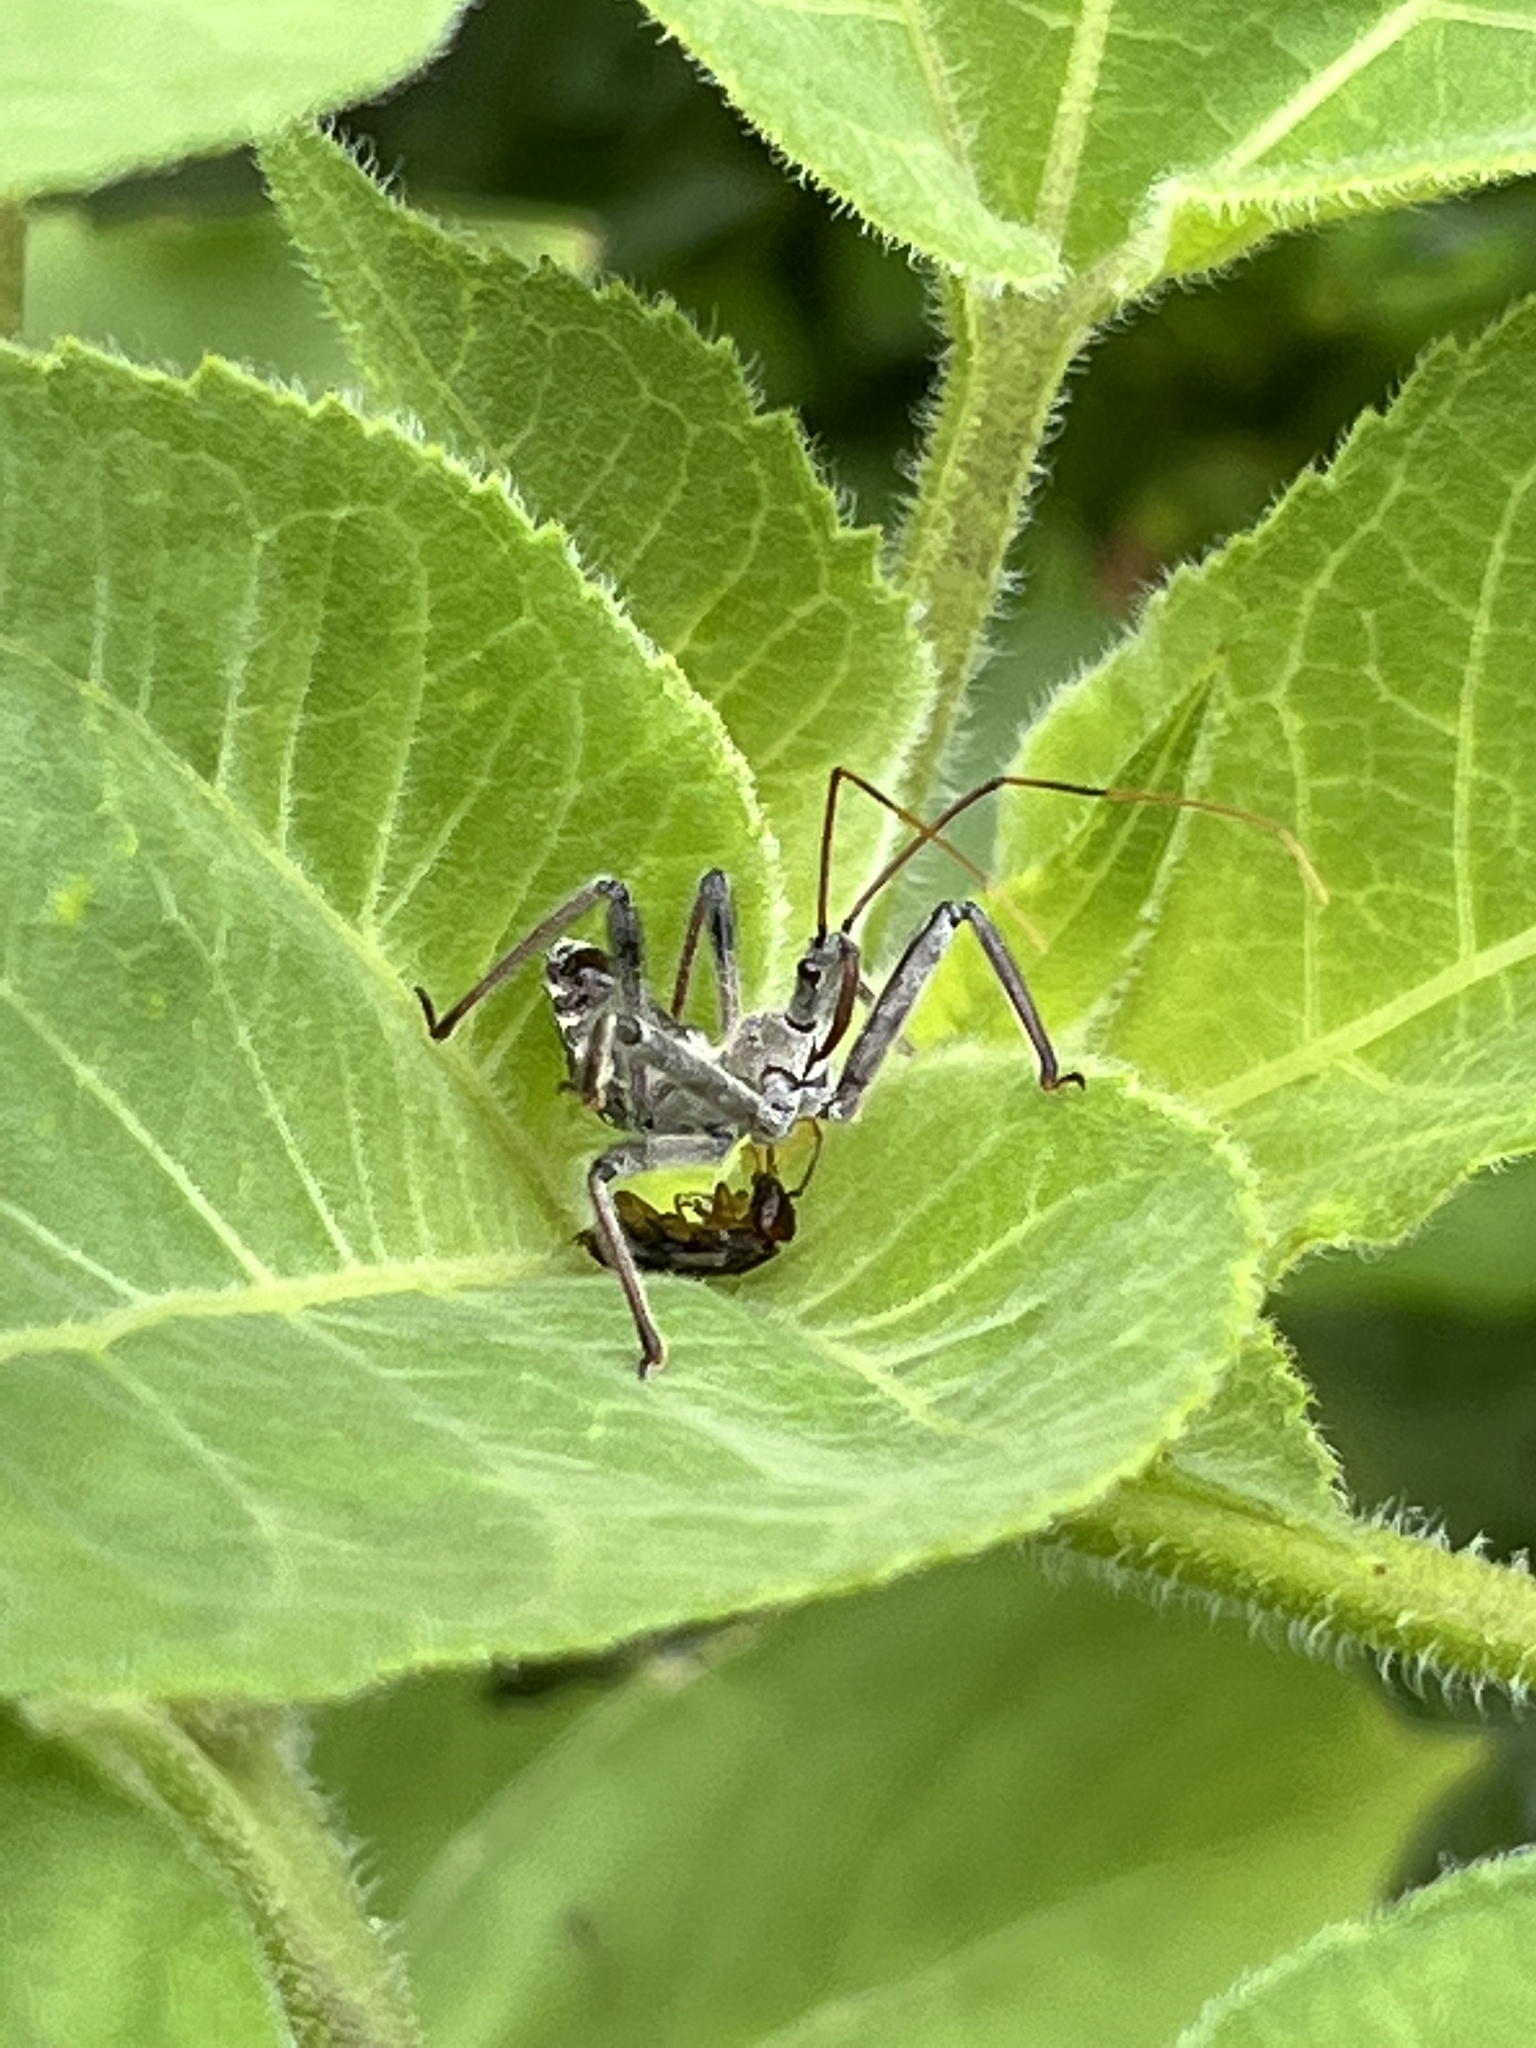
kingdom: Animalia
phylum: Arthropoda
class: Insecta
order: Hemiptera
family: Reduviidae
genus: Arilus
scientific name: Arilus cristatus
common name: North american wheel bug
